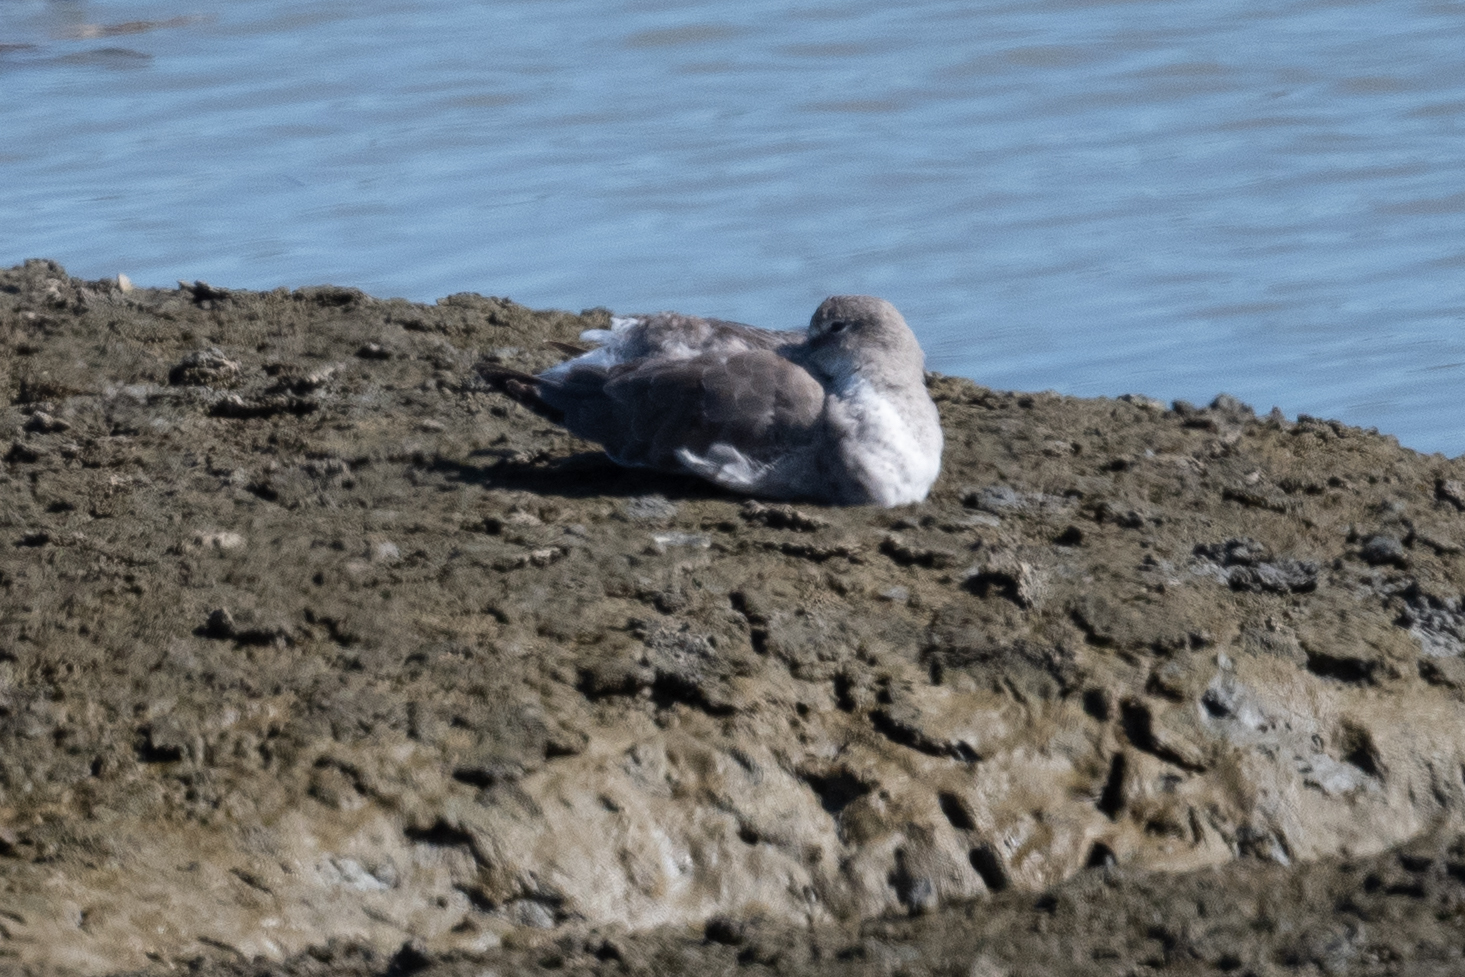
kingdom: Animalia
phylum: Chordata
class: Aves
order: Charadriiformes
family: Scolopacidae
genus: Tringa
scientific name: Tringa semipalmata
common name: Willet
